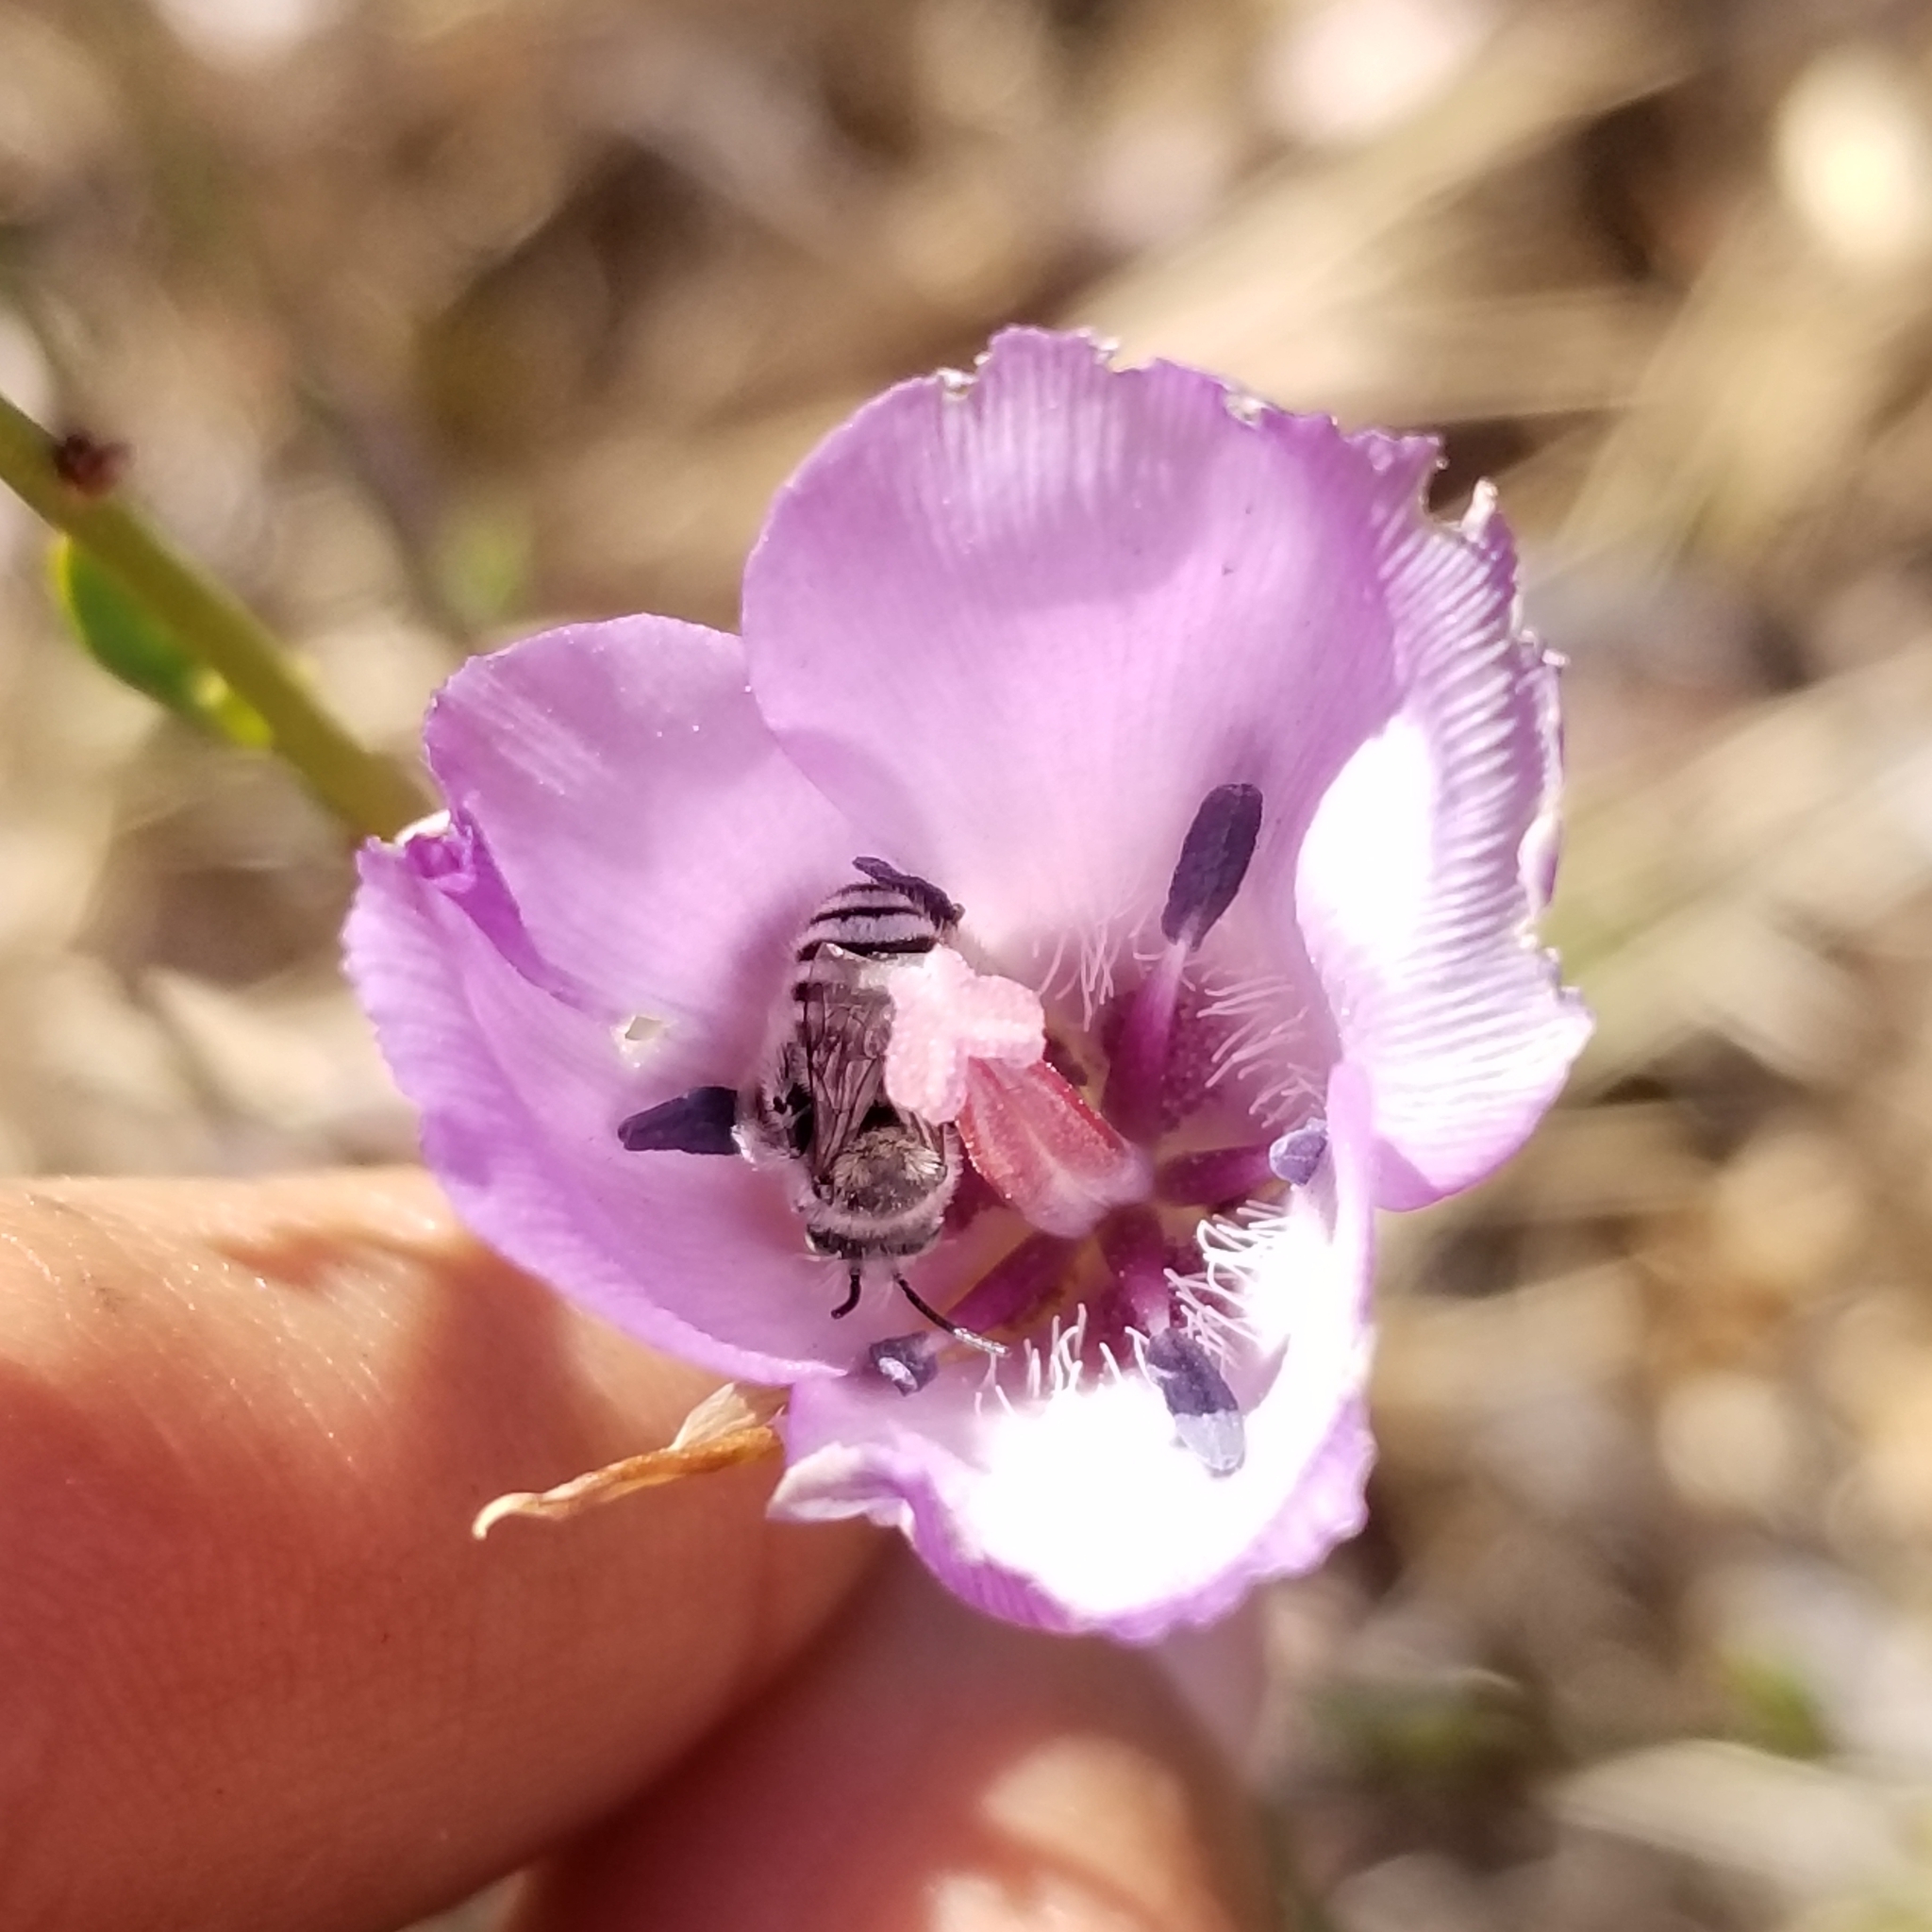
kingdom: Plantae
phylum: Tracheophyta
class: Liliopsida
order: Liliales
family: Liliaceae
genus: Calochortus
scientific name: Calochortus splendens
